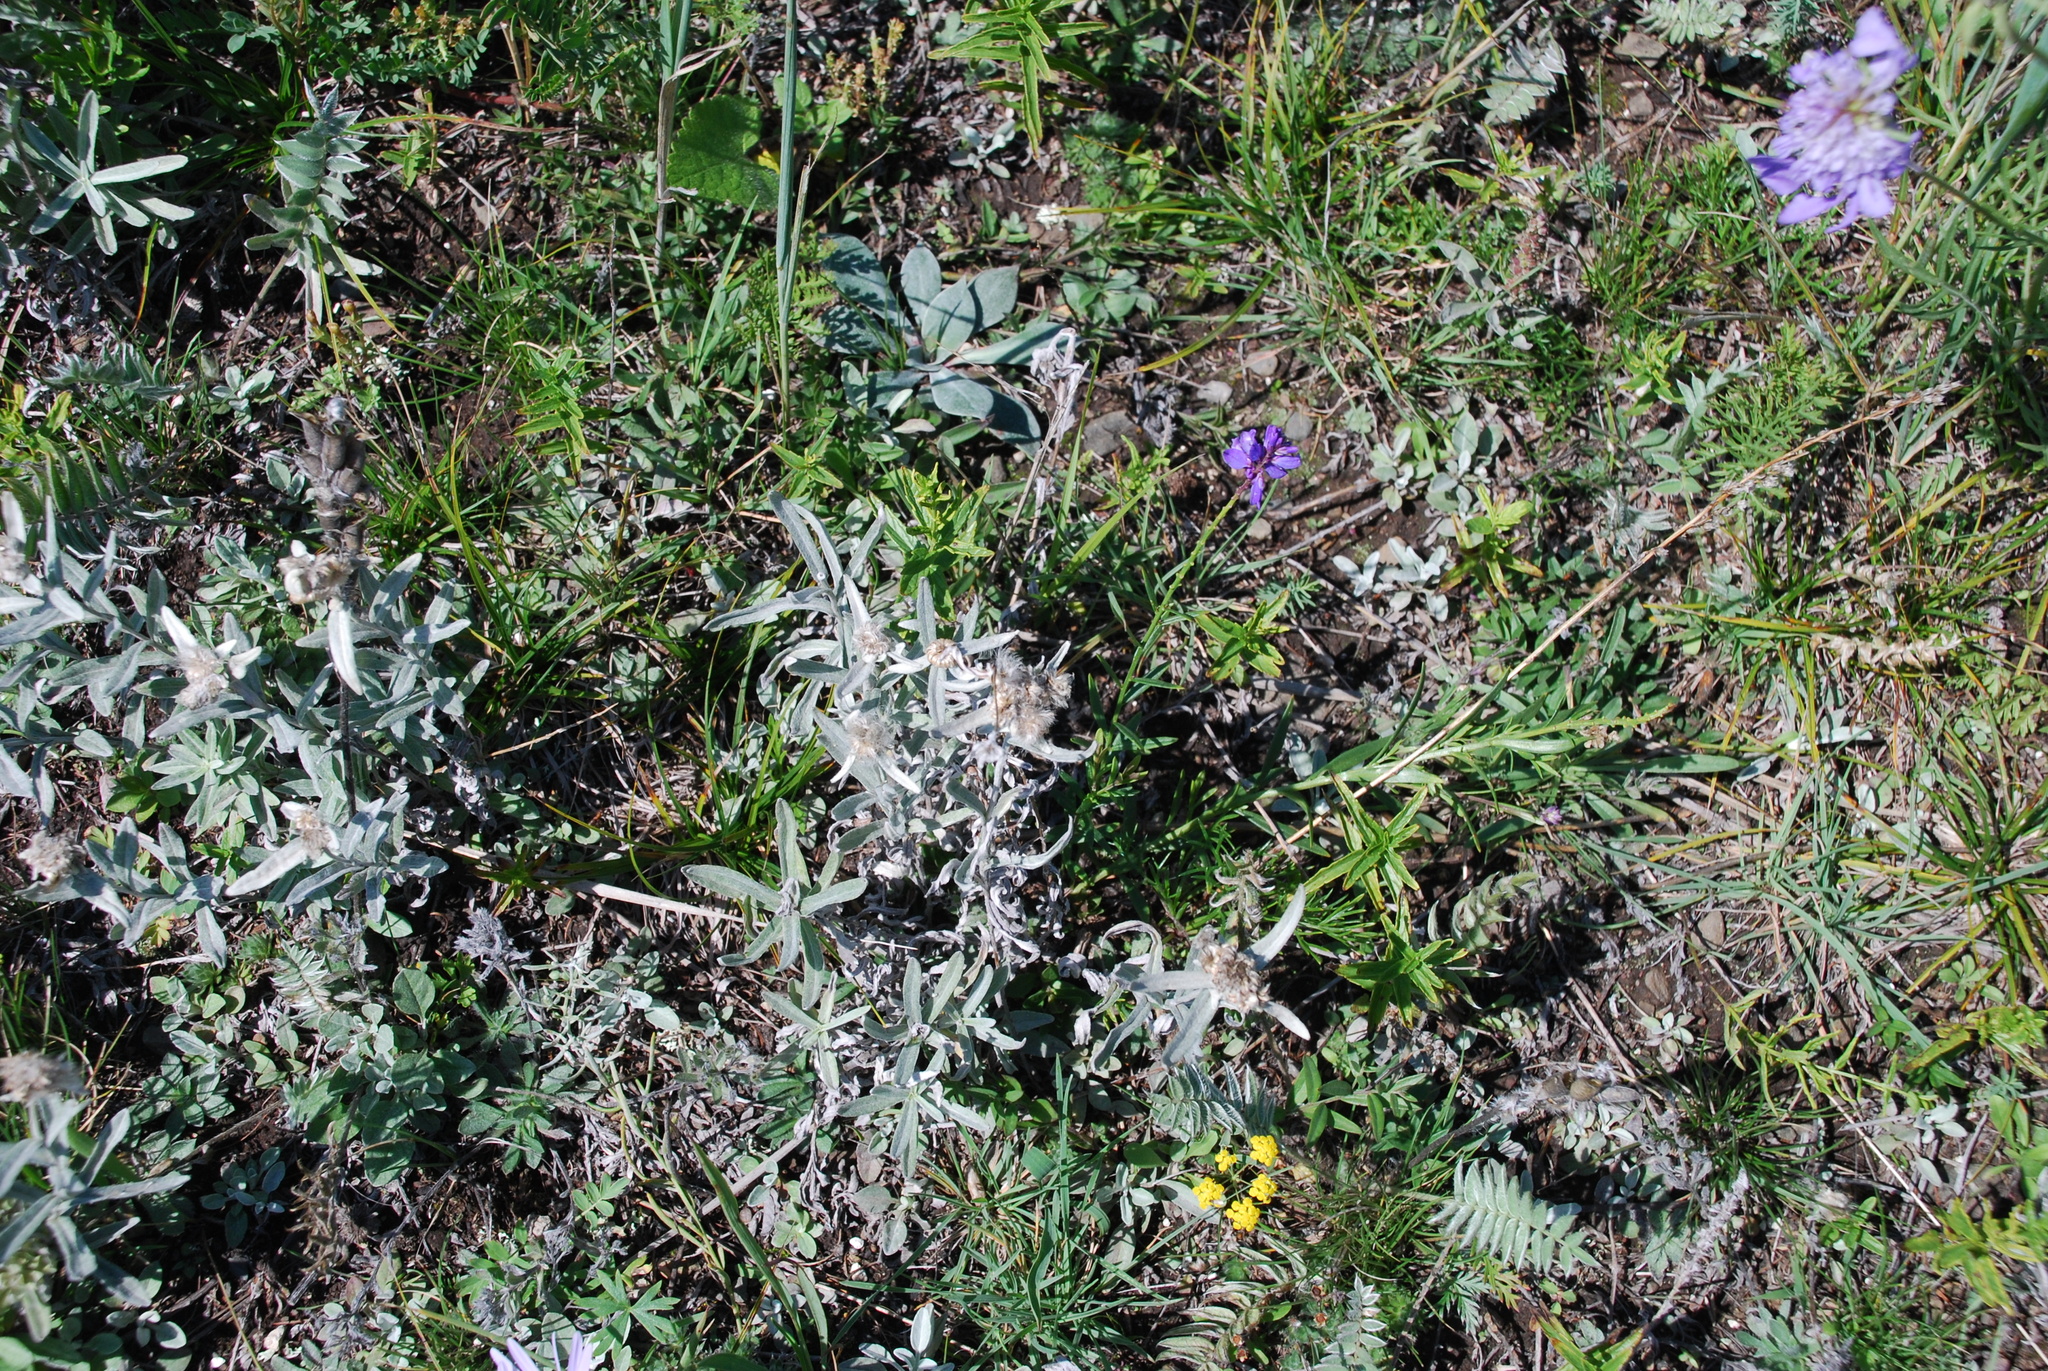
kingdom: Plantae
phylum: Tracheophyta
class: Magnoliopsida
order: Asterales
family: Asteraceae
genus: Leontopodium
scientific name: Leontopodium leontopodioides
